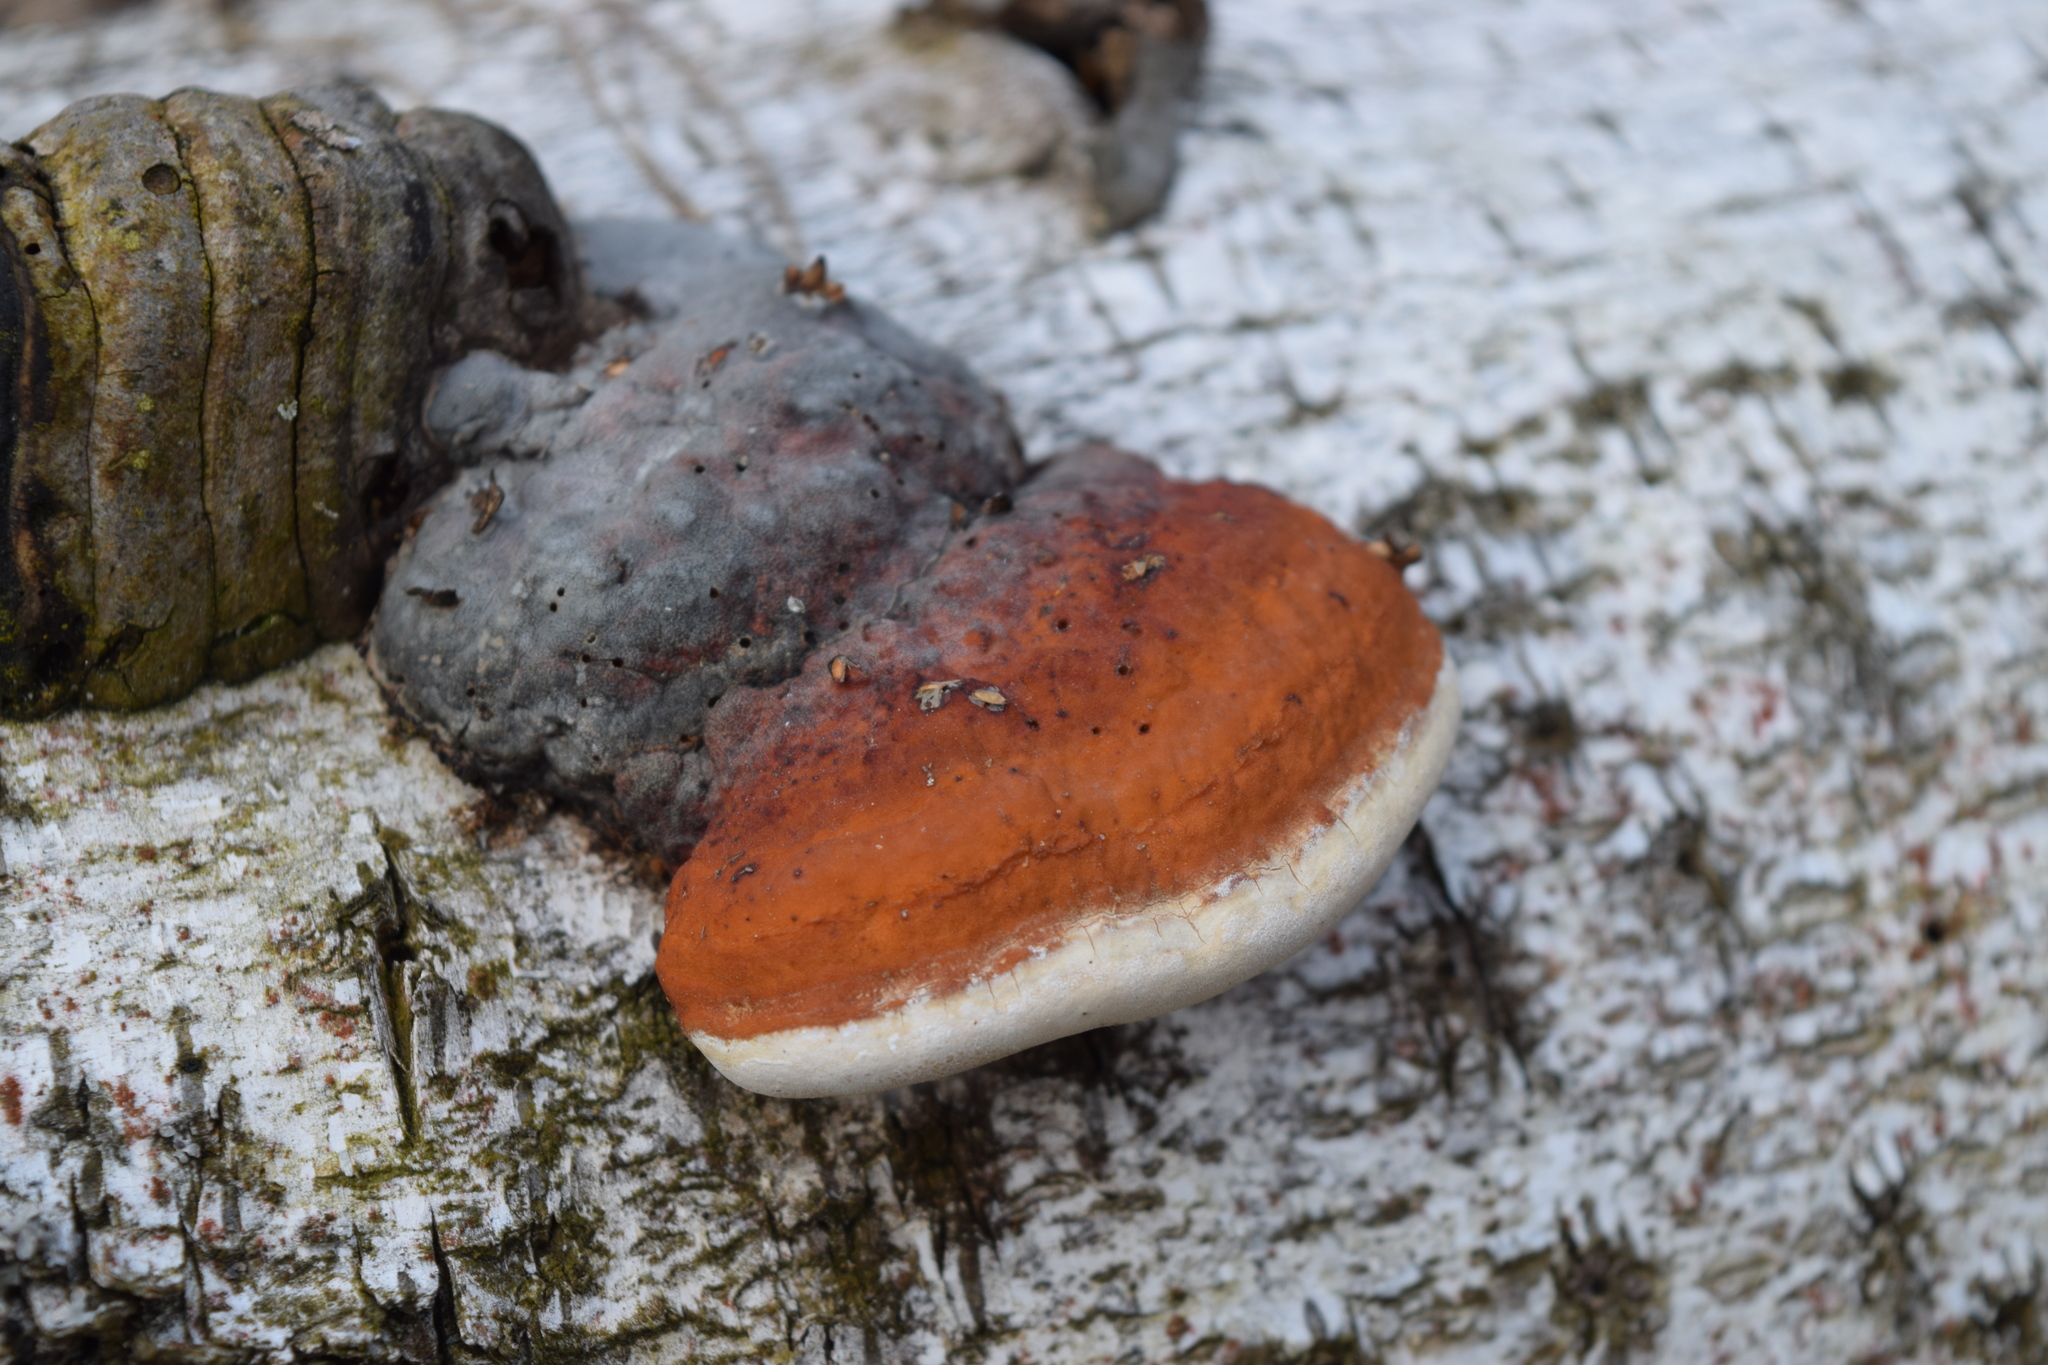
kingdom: Fungi
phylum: Basidiomycota
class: Agaricomycetes
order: Polyporales
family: Fomitopsidaceae
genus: Fomitopsis
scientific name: Fomitopsis pinicola
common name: Red-belted bracket
